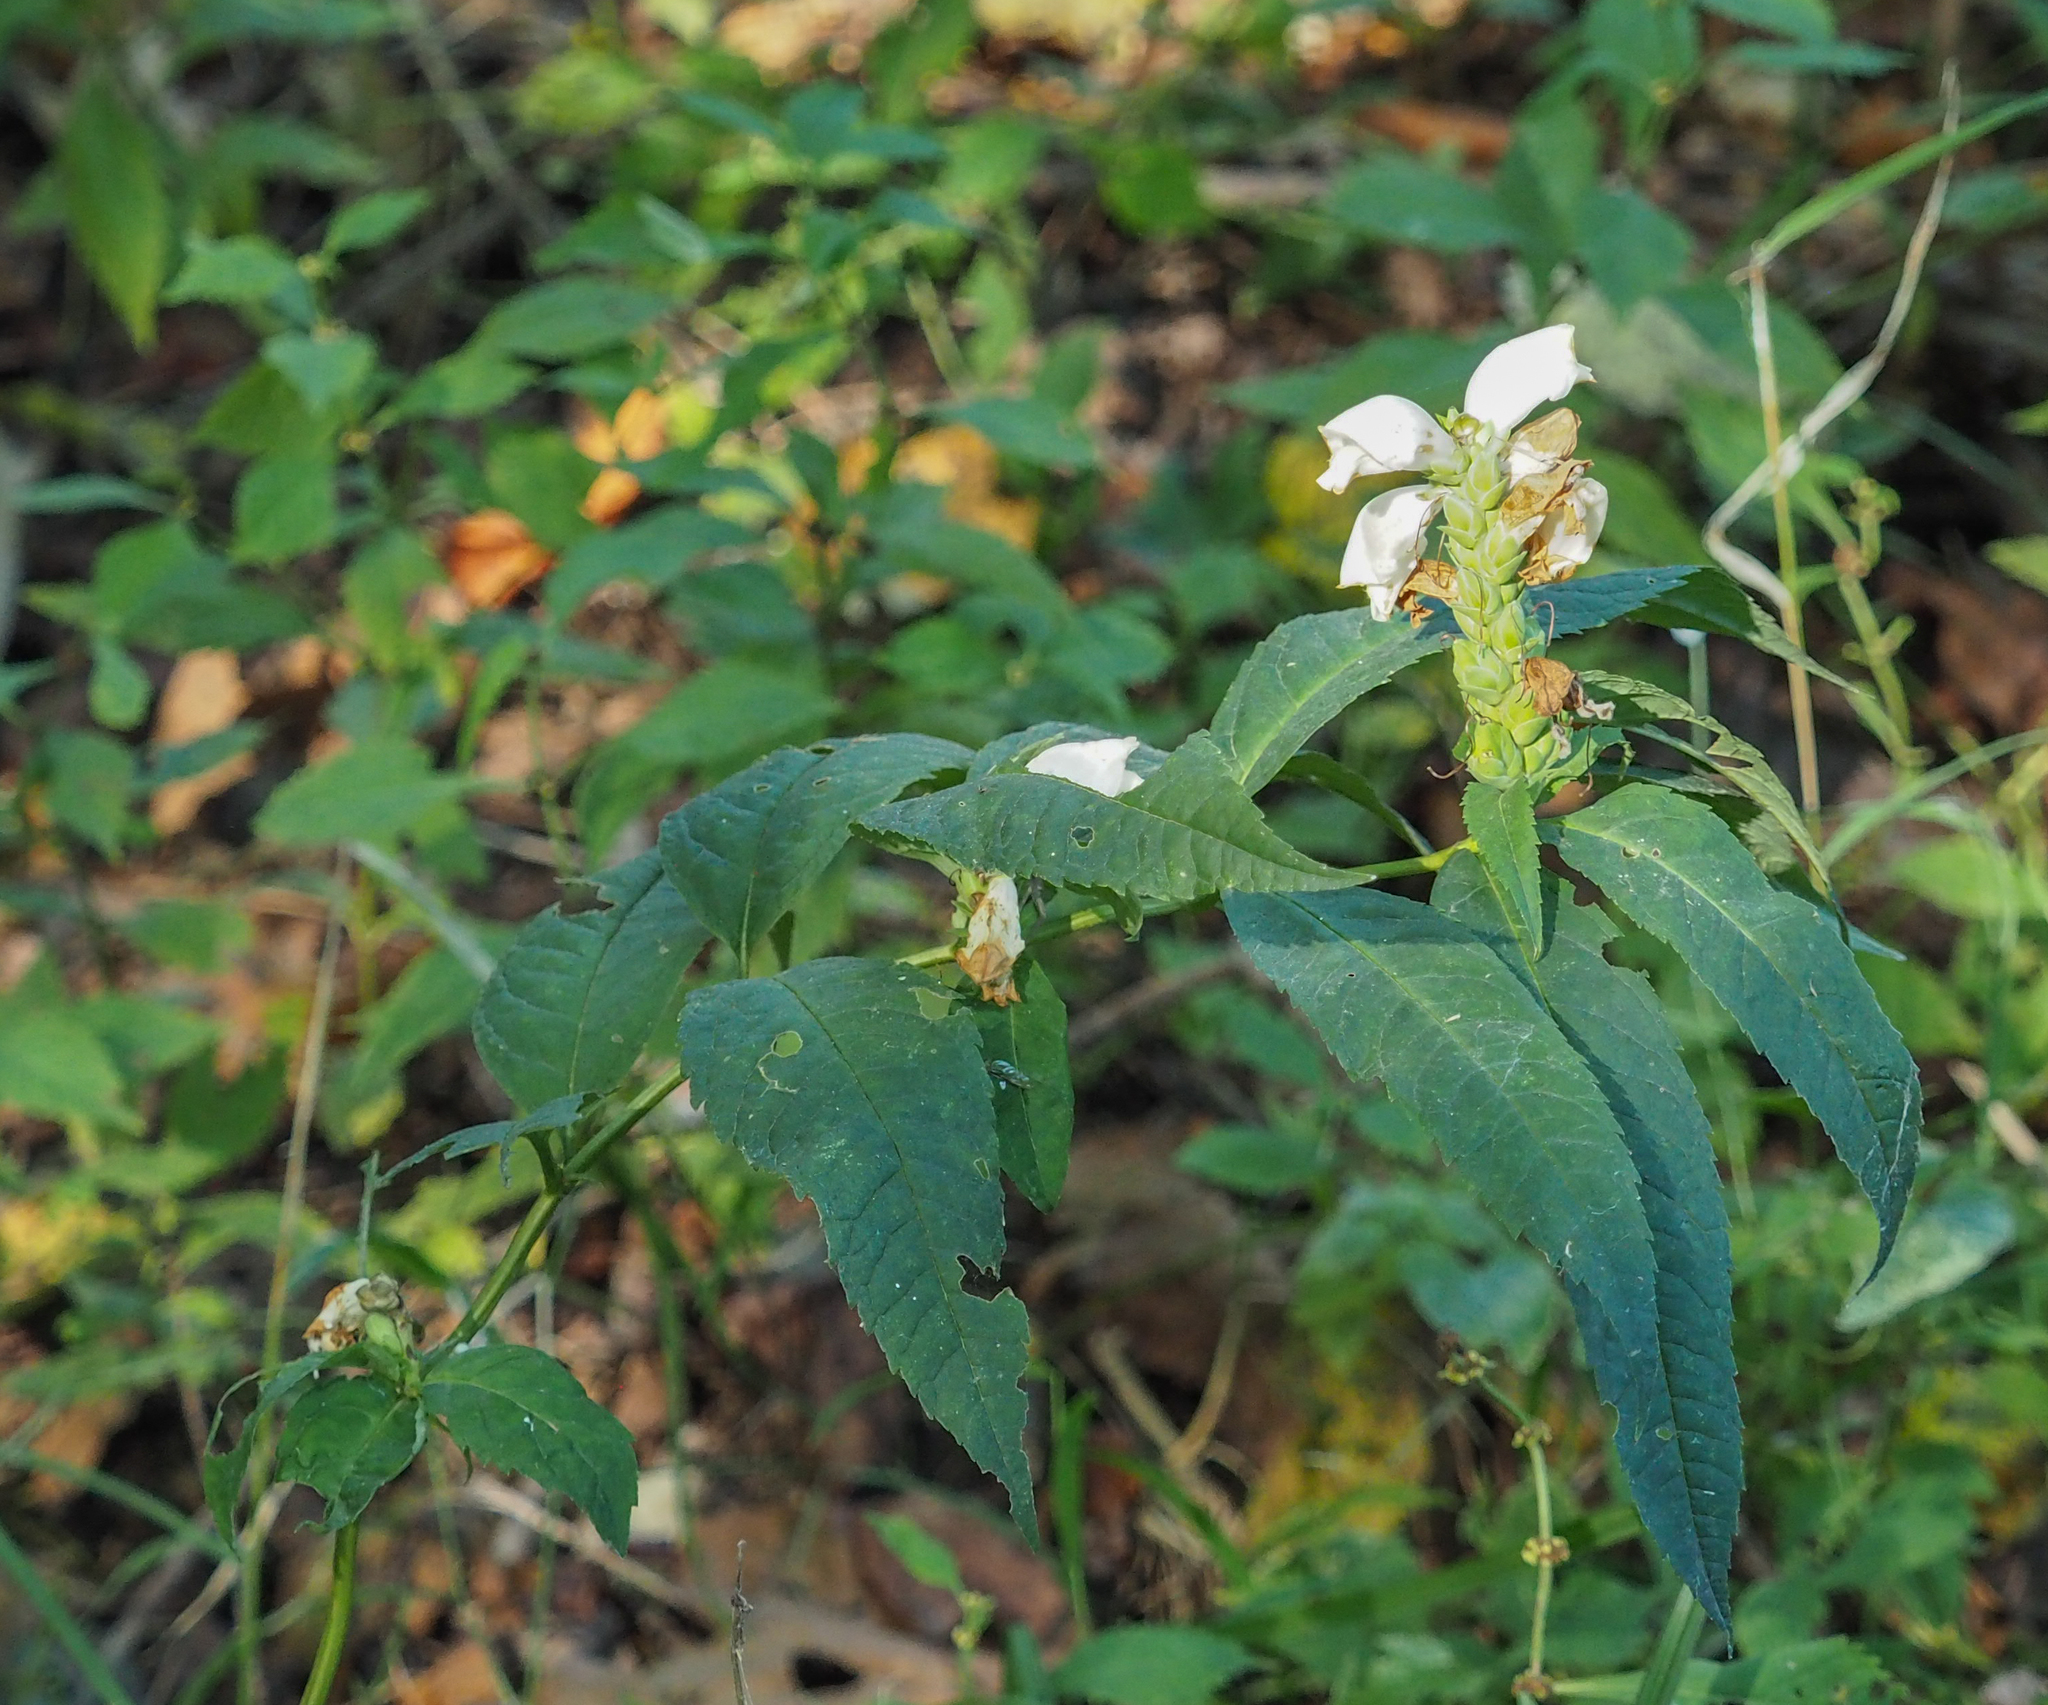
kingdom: Plantae
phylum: Tracheophyta
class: Magnoliopsida
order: Lamiales
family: Plantaginaceae
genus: Chelone
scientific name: Chelone glabra
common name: Snakehead
